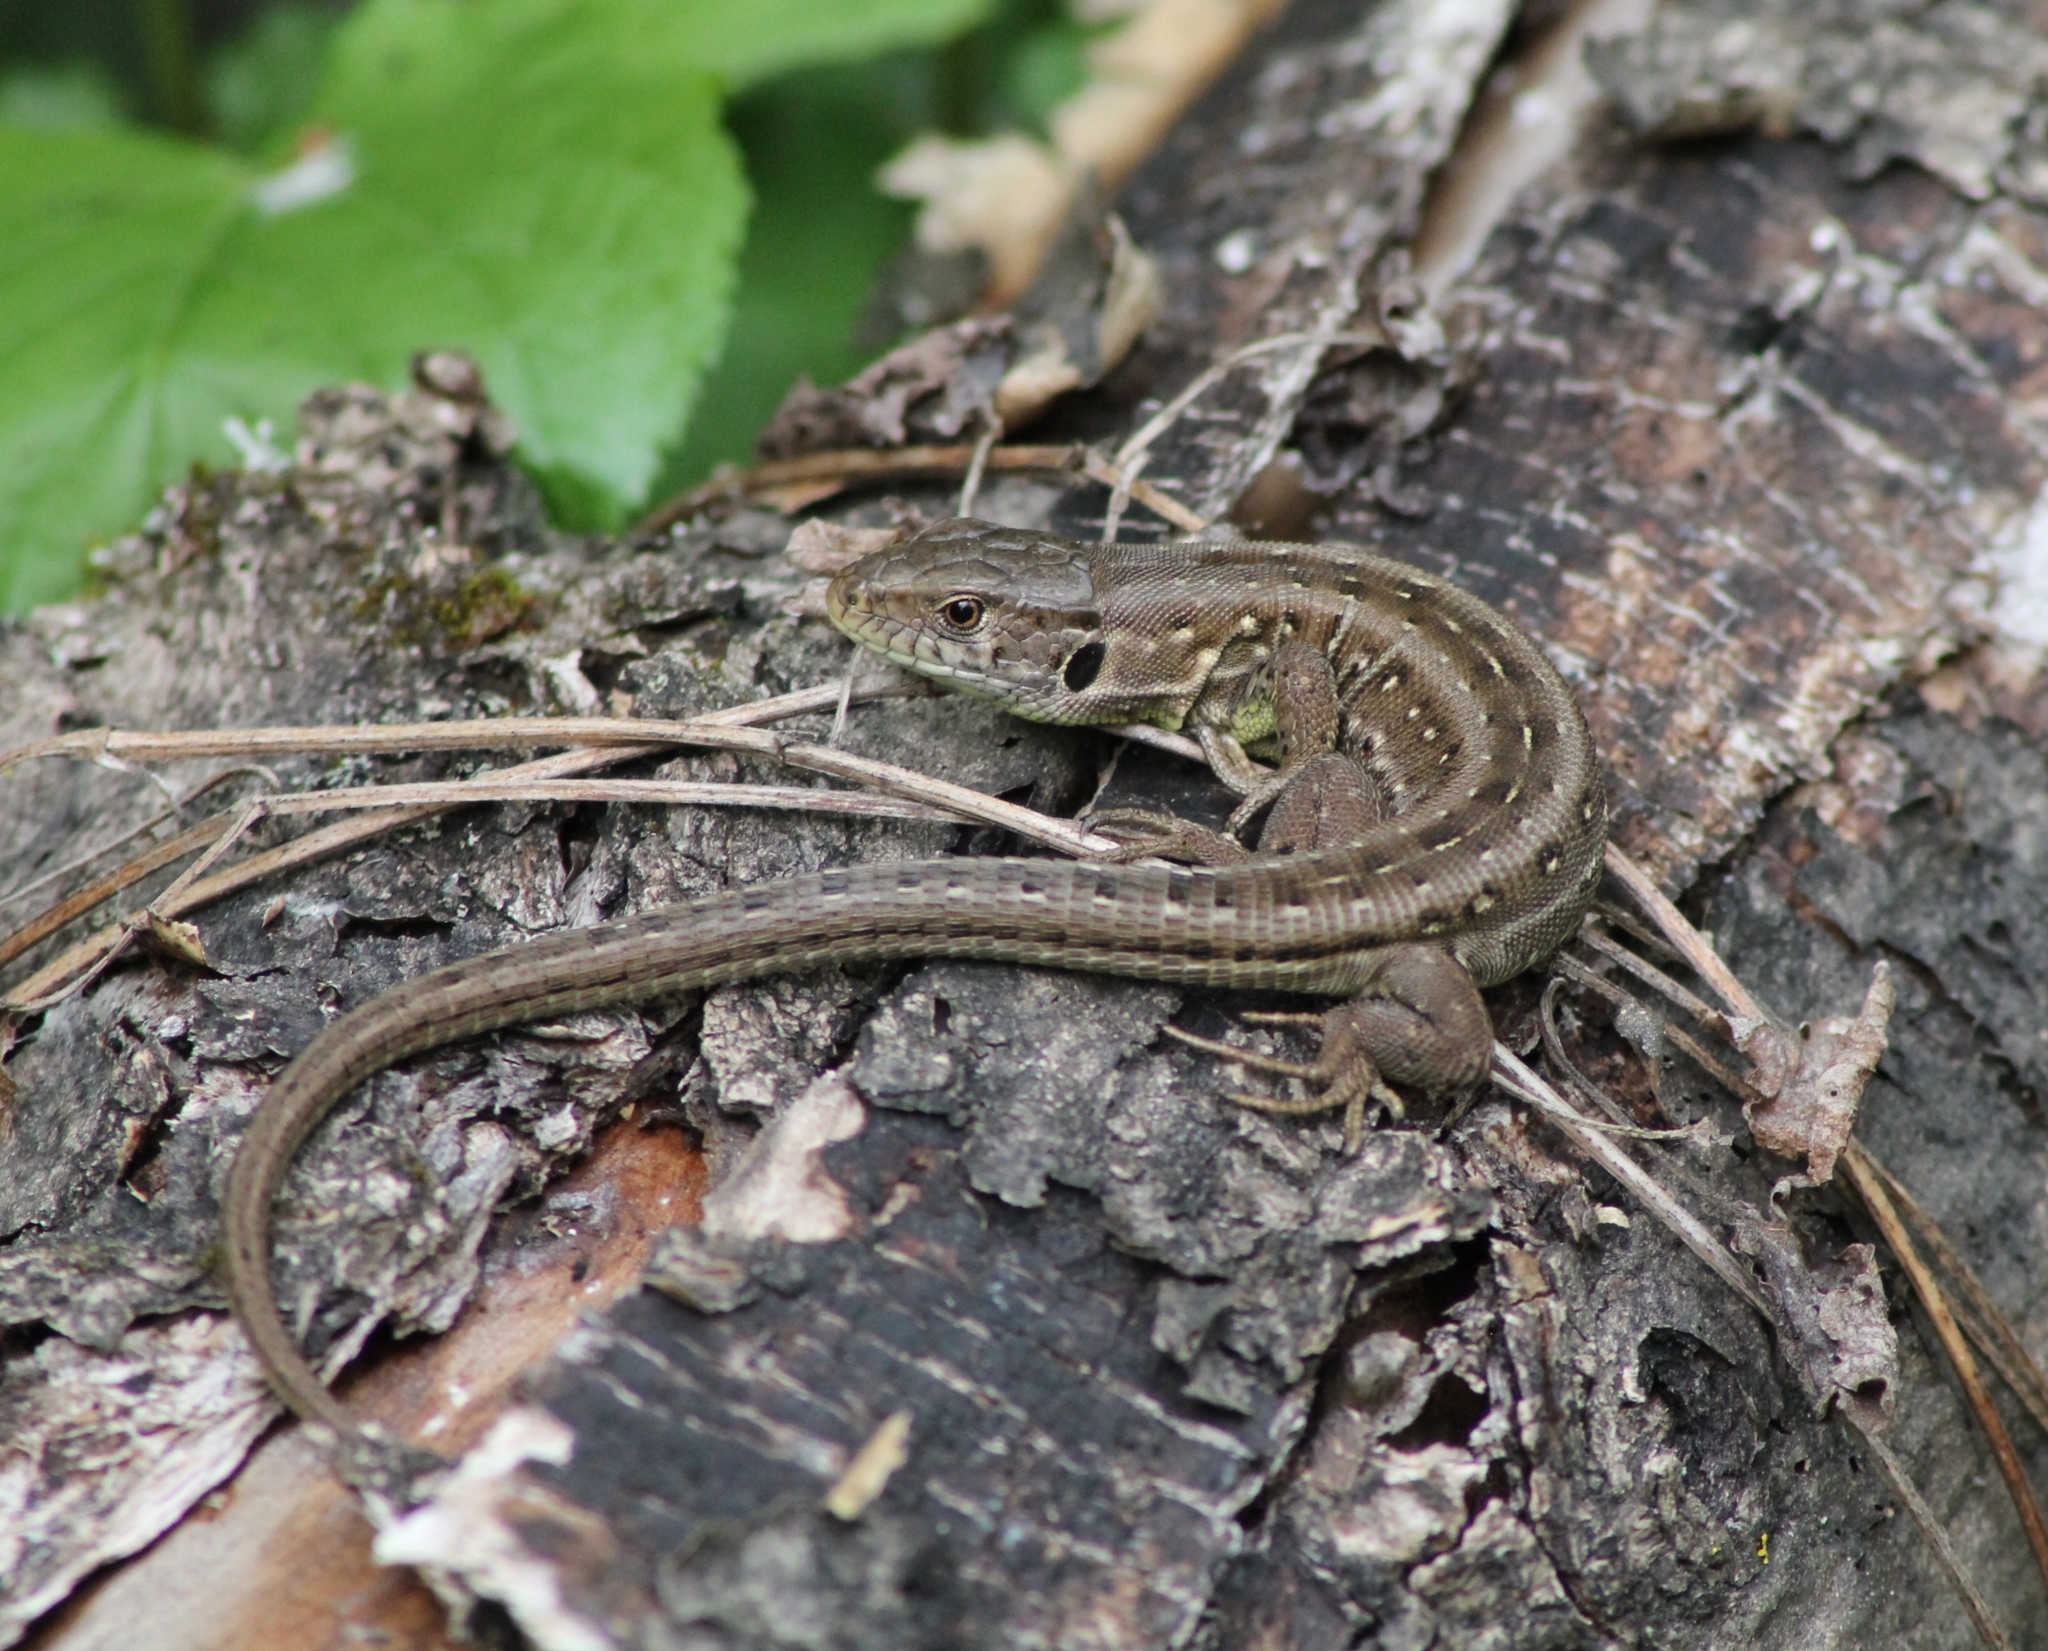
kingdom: Animalia
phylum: Chordata
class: Squamata
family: Lacertidae
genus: Lacerta
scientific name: Lacerta agilis
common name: Sand lizard
